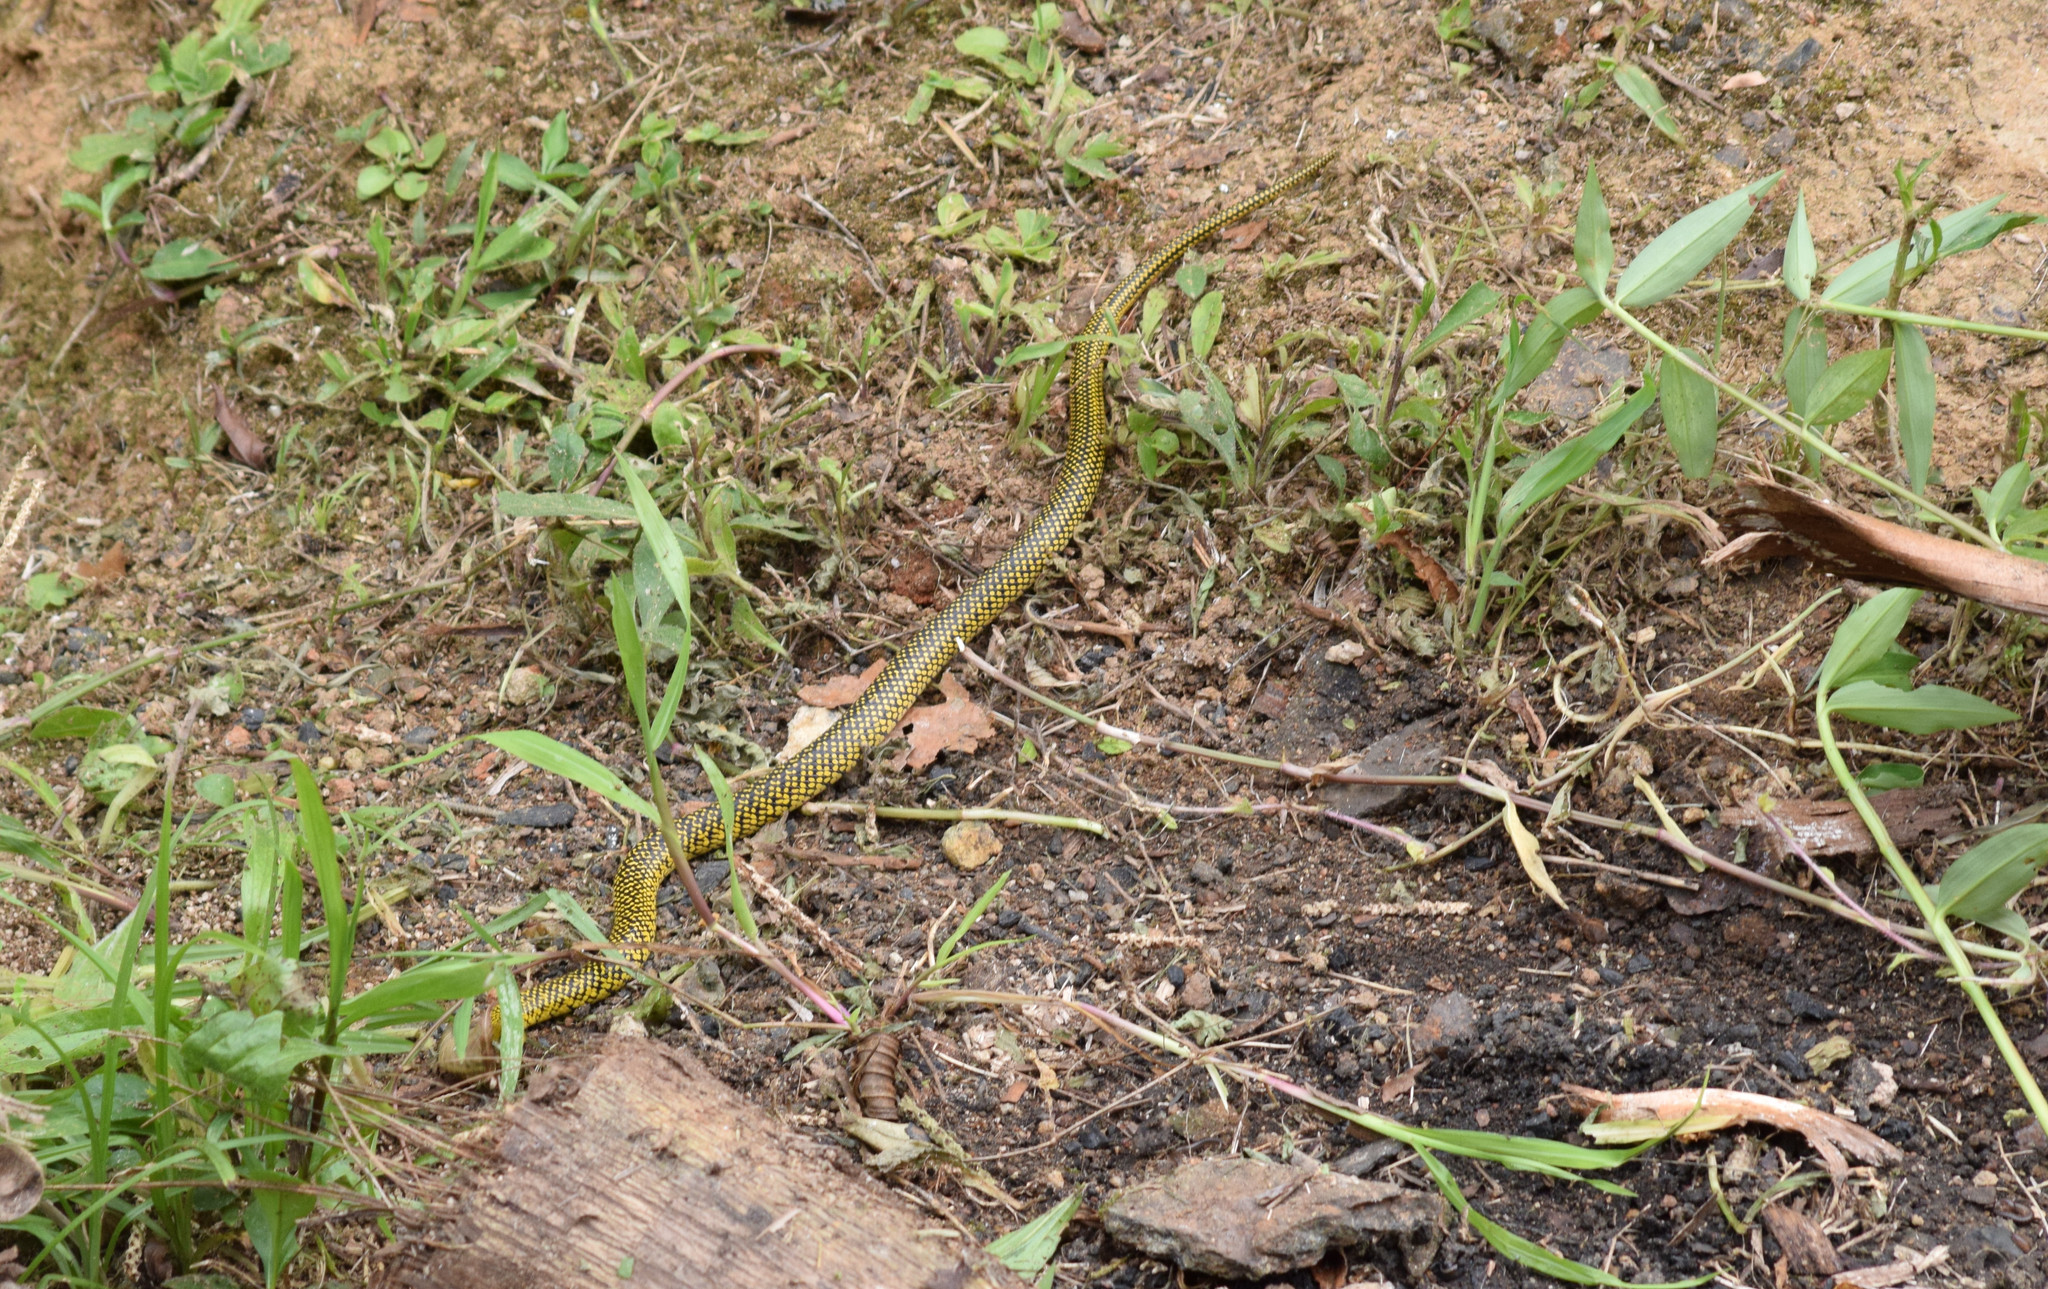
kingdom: Animalia
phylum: Chordata
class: Squamata
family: Colubridae
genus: Erythrolamprus
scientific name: Erythrolamprus miliaris
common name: Military ground snake
